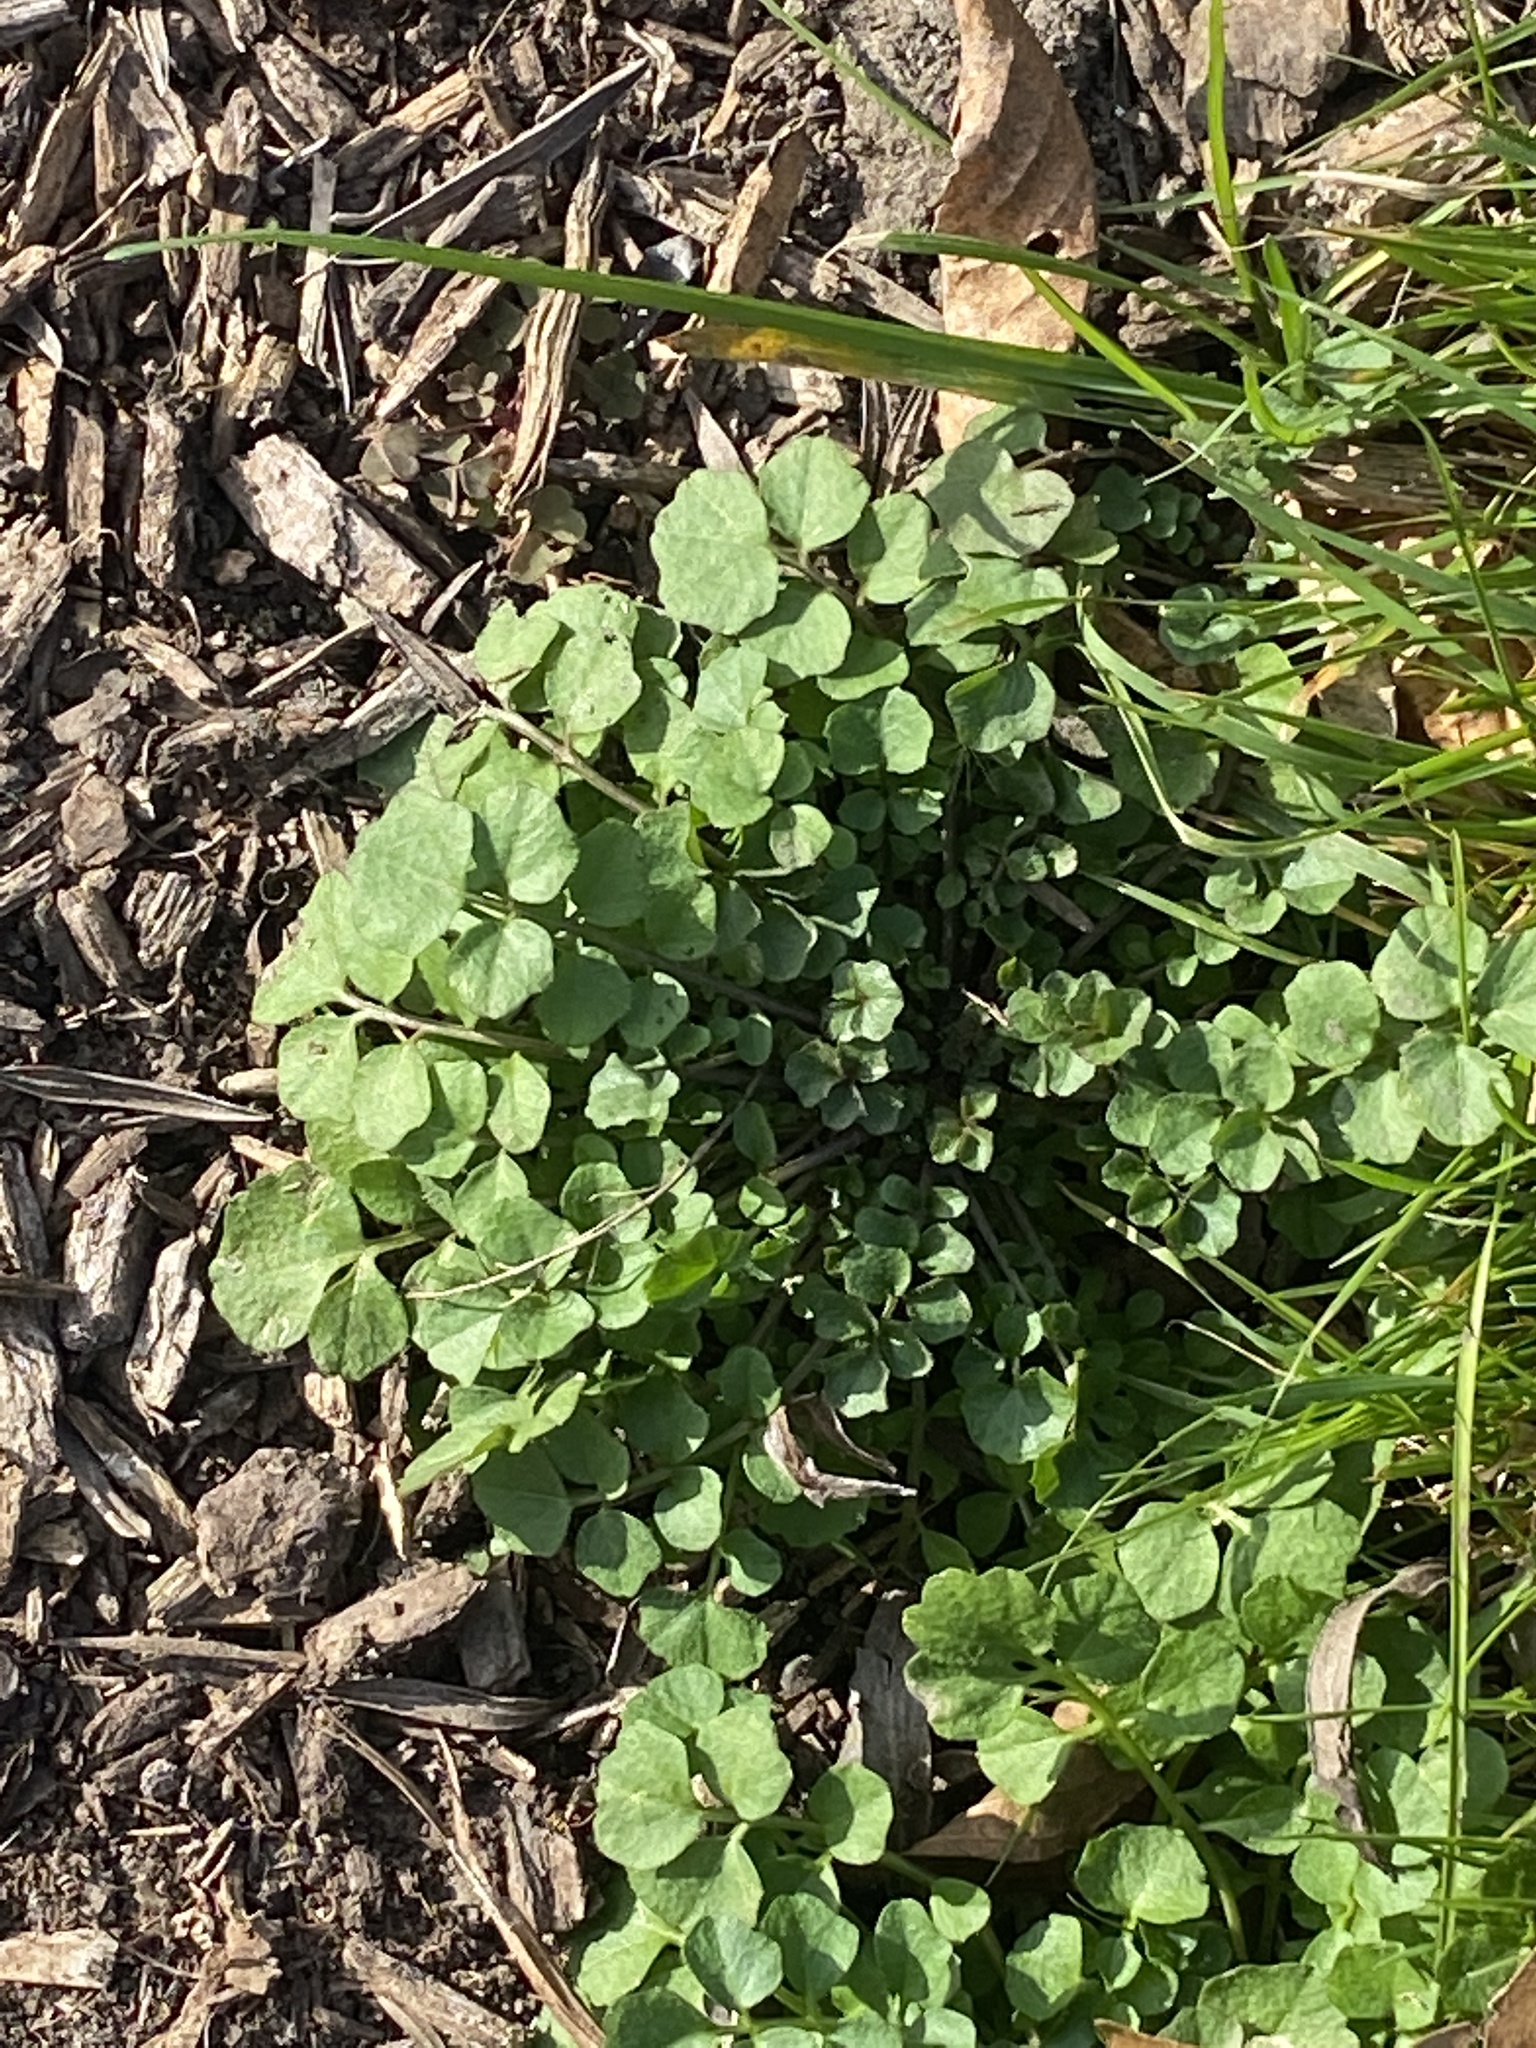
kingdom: Plantae
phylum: Tracheophyta
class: Magnoliopsida
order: Brassicales
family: Brassicaceae
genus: Cardamine
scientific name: Cardamine hirsuta
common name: Hairy bittercress
